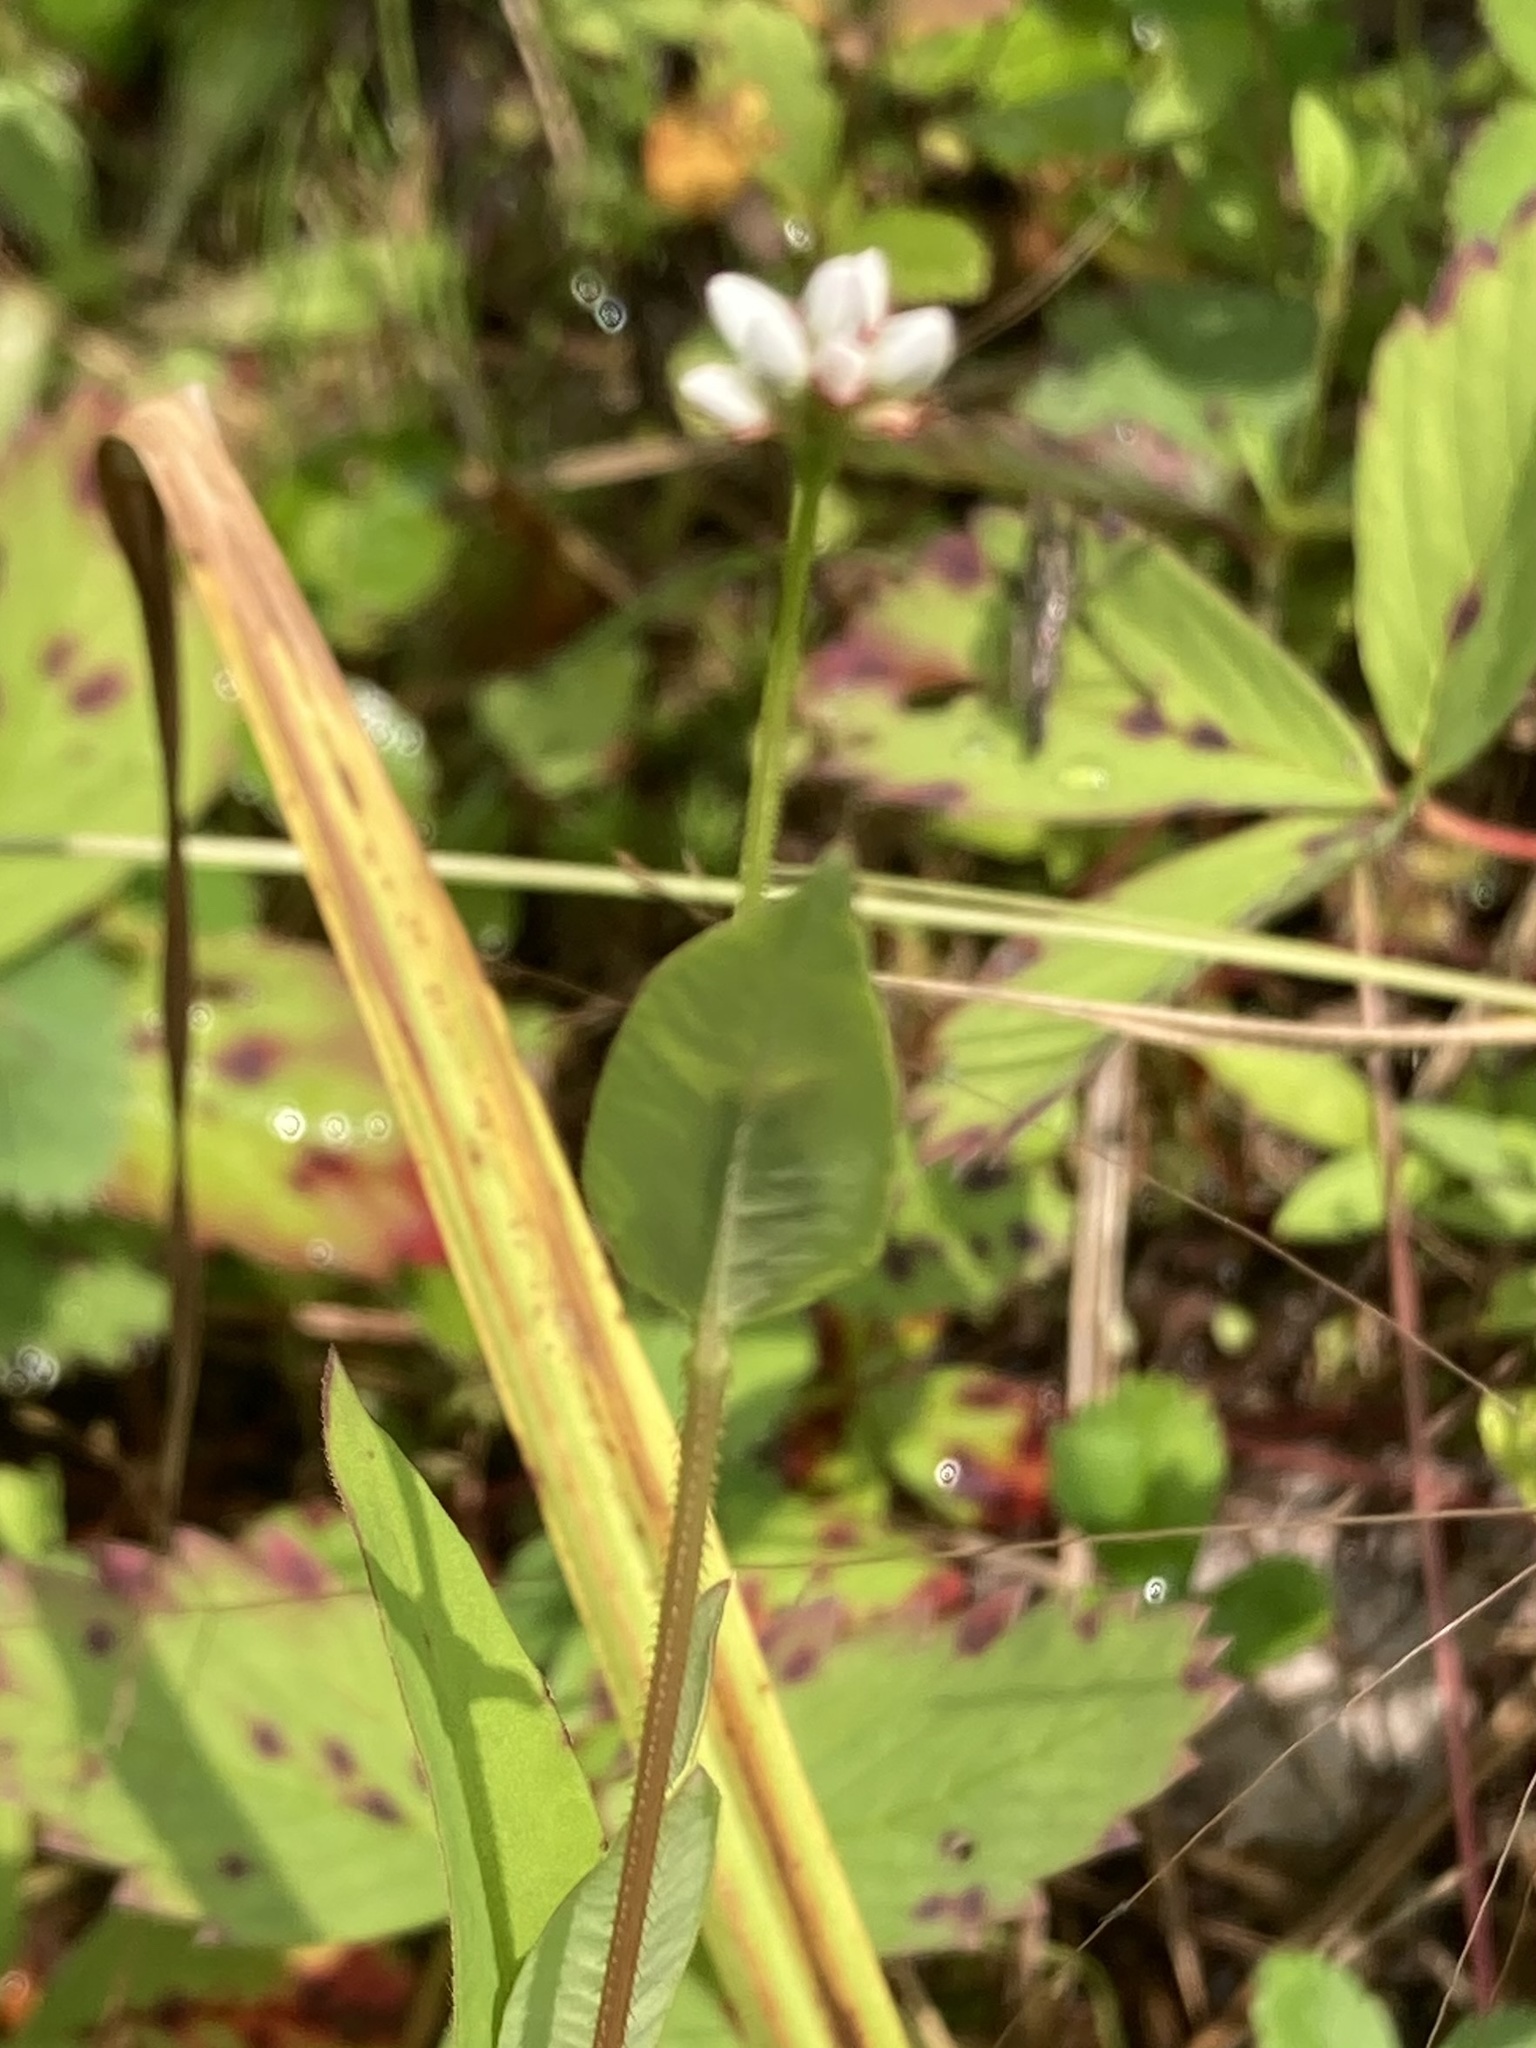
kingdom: Plantae
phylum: Tracheophyta
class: Magnoliopsida
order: Caryophyllales
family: Polygonaceae
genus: Persicaria
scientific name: Persicaria sagittata
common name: American tearthumb
